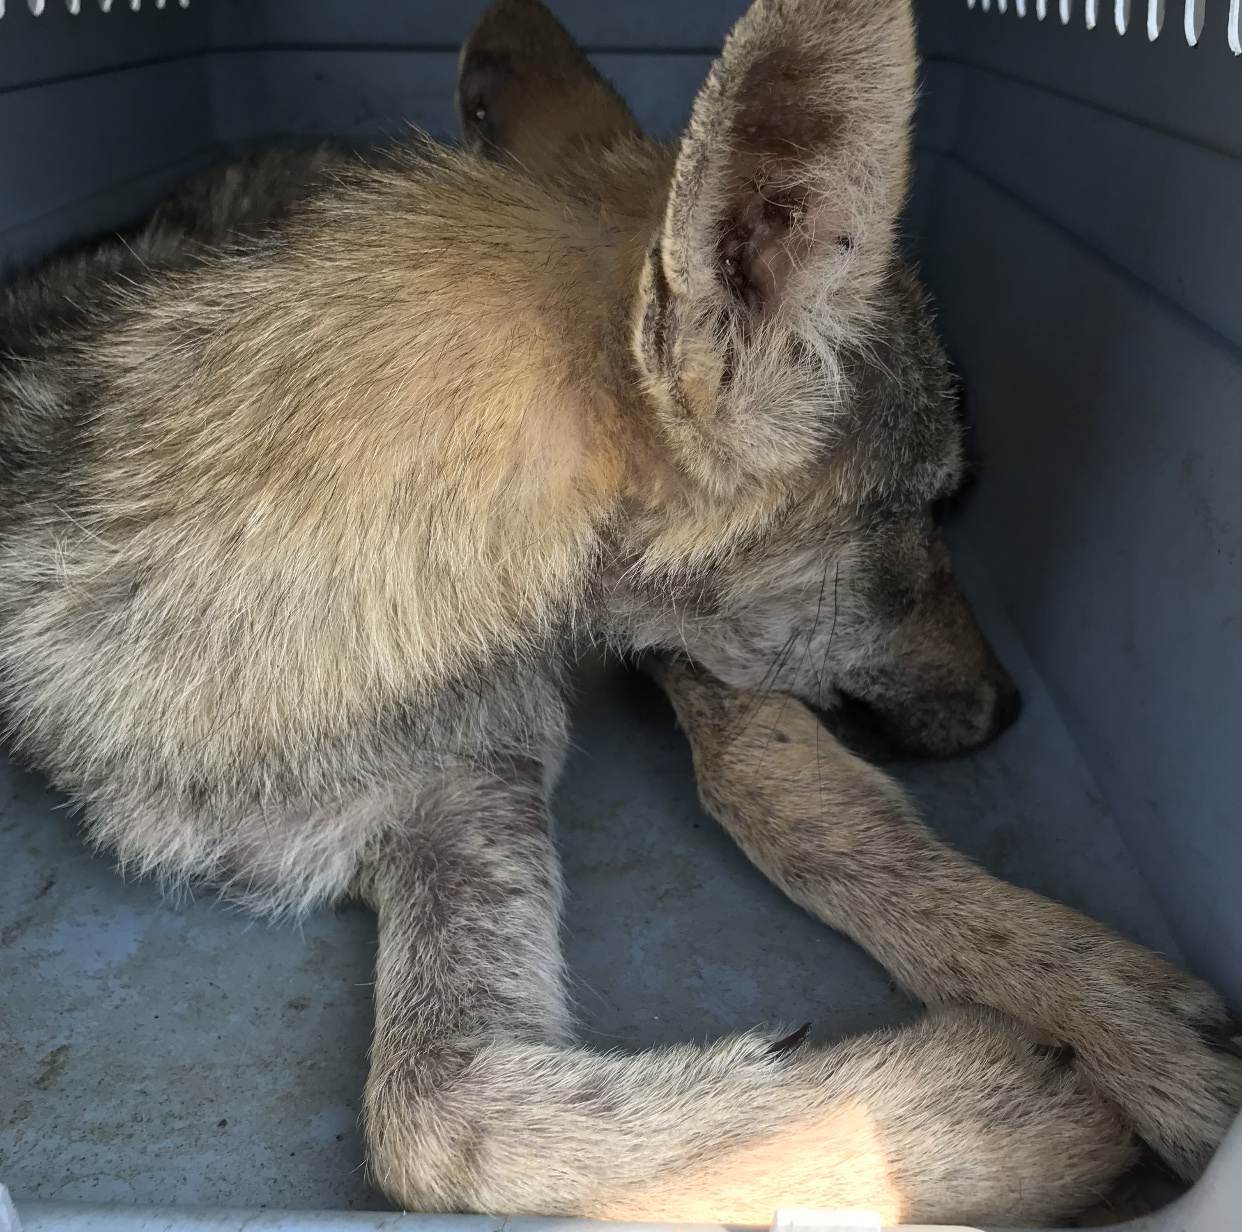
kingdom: Animalia
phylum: Chordata
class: Mammalia
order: Carnivora
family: Canidae
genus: Canis
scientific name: Canis latrans
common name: Coyote
